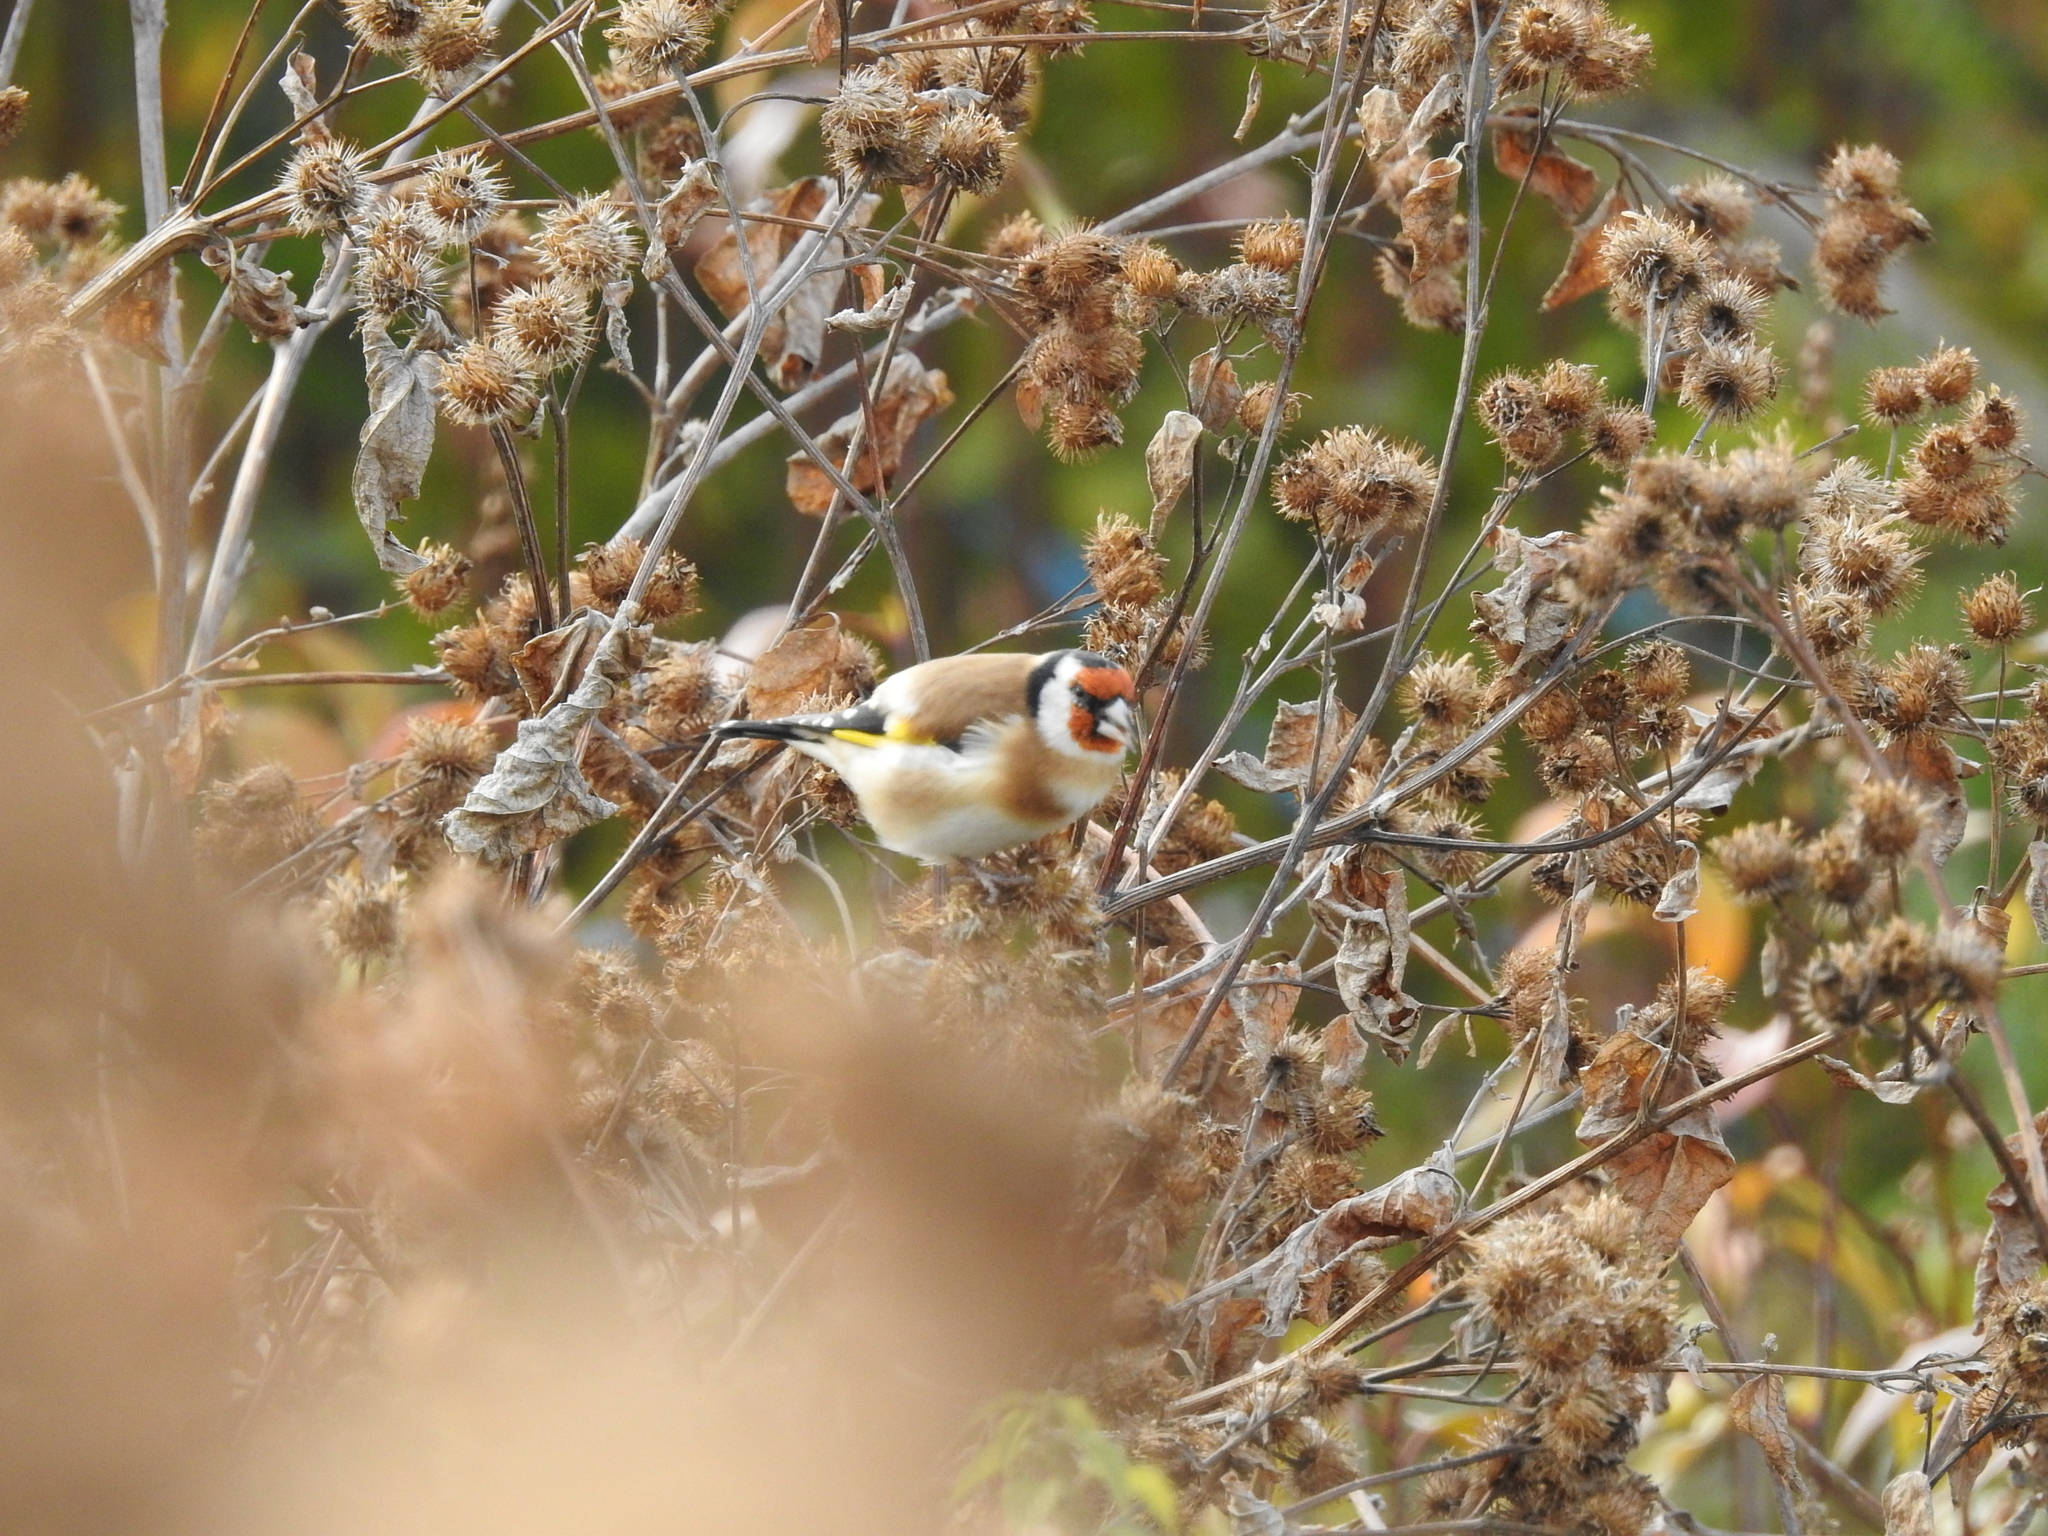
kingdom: Animalia
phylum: Chordata
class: Aves
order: Passeriformes
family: Fringillidae
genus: Carduelis
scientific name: Carduelis carduelis
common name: European goldfinch
